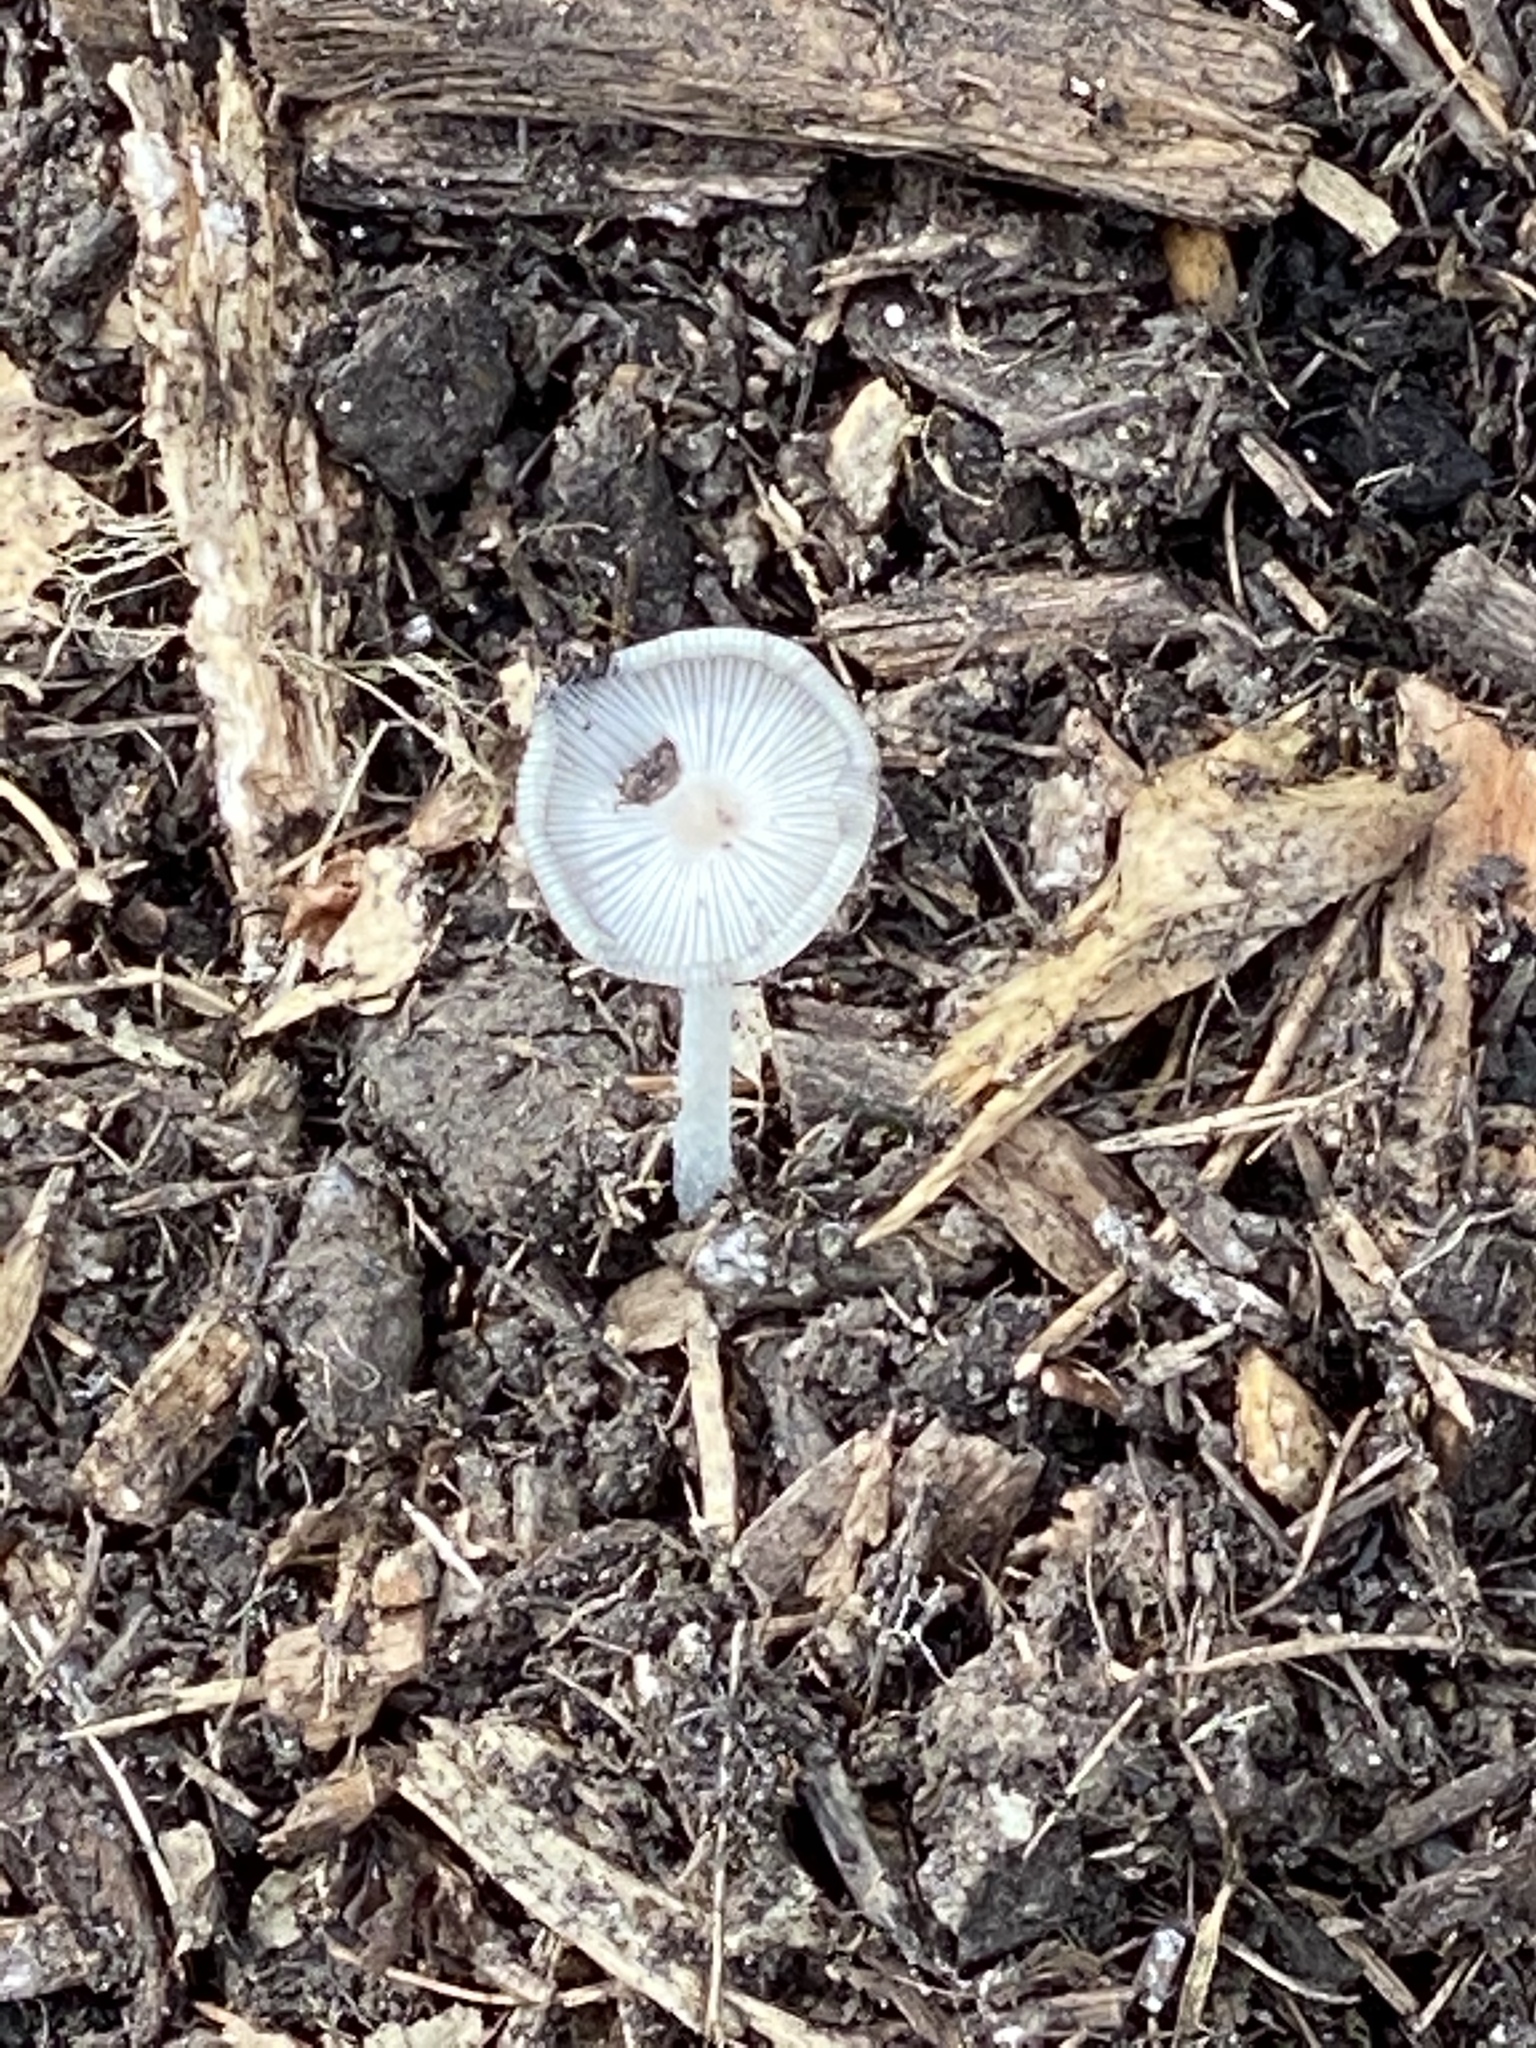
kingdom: Fungi
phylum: Basidiomycota
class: Agaricomycetes
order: Agaricales
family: Psathyrellaceae
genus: Coprinopsis
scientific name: Coprinopsis lagopus
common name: Hare'sfoot inkcap
